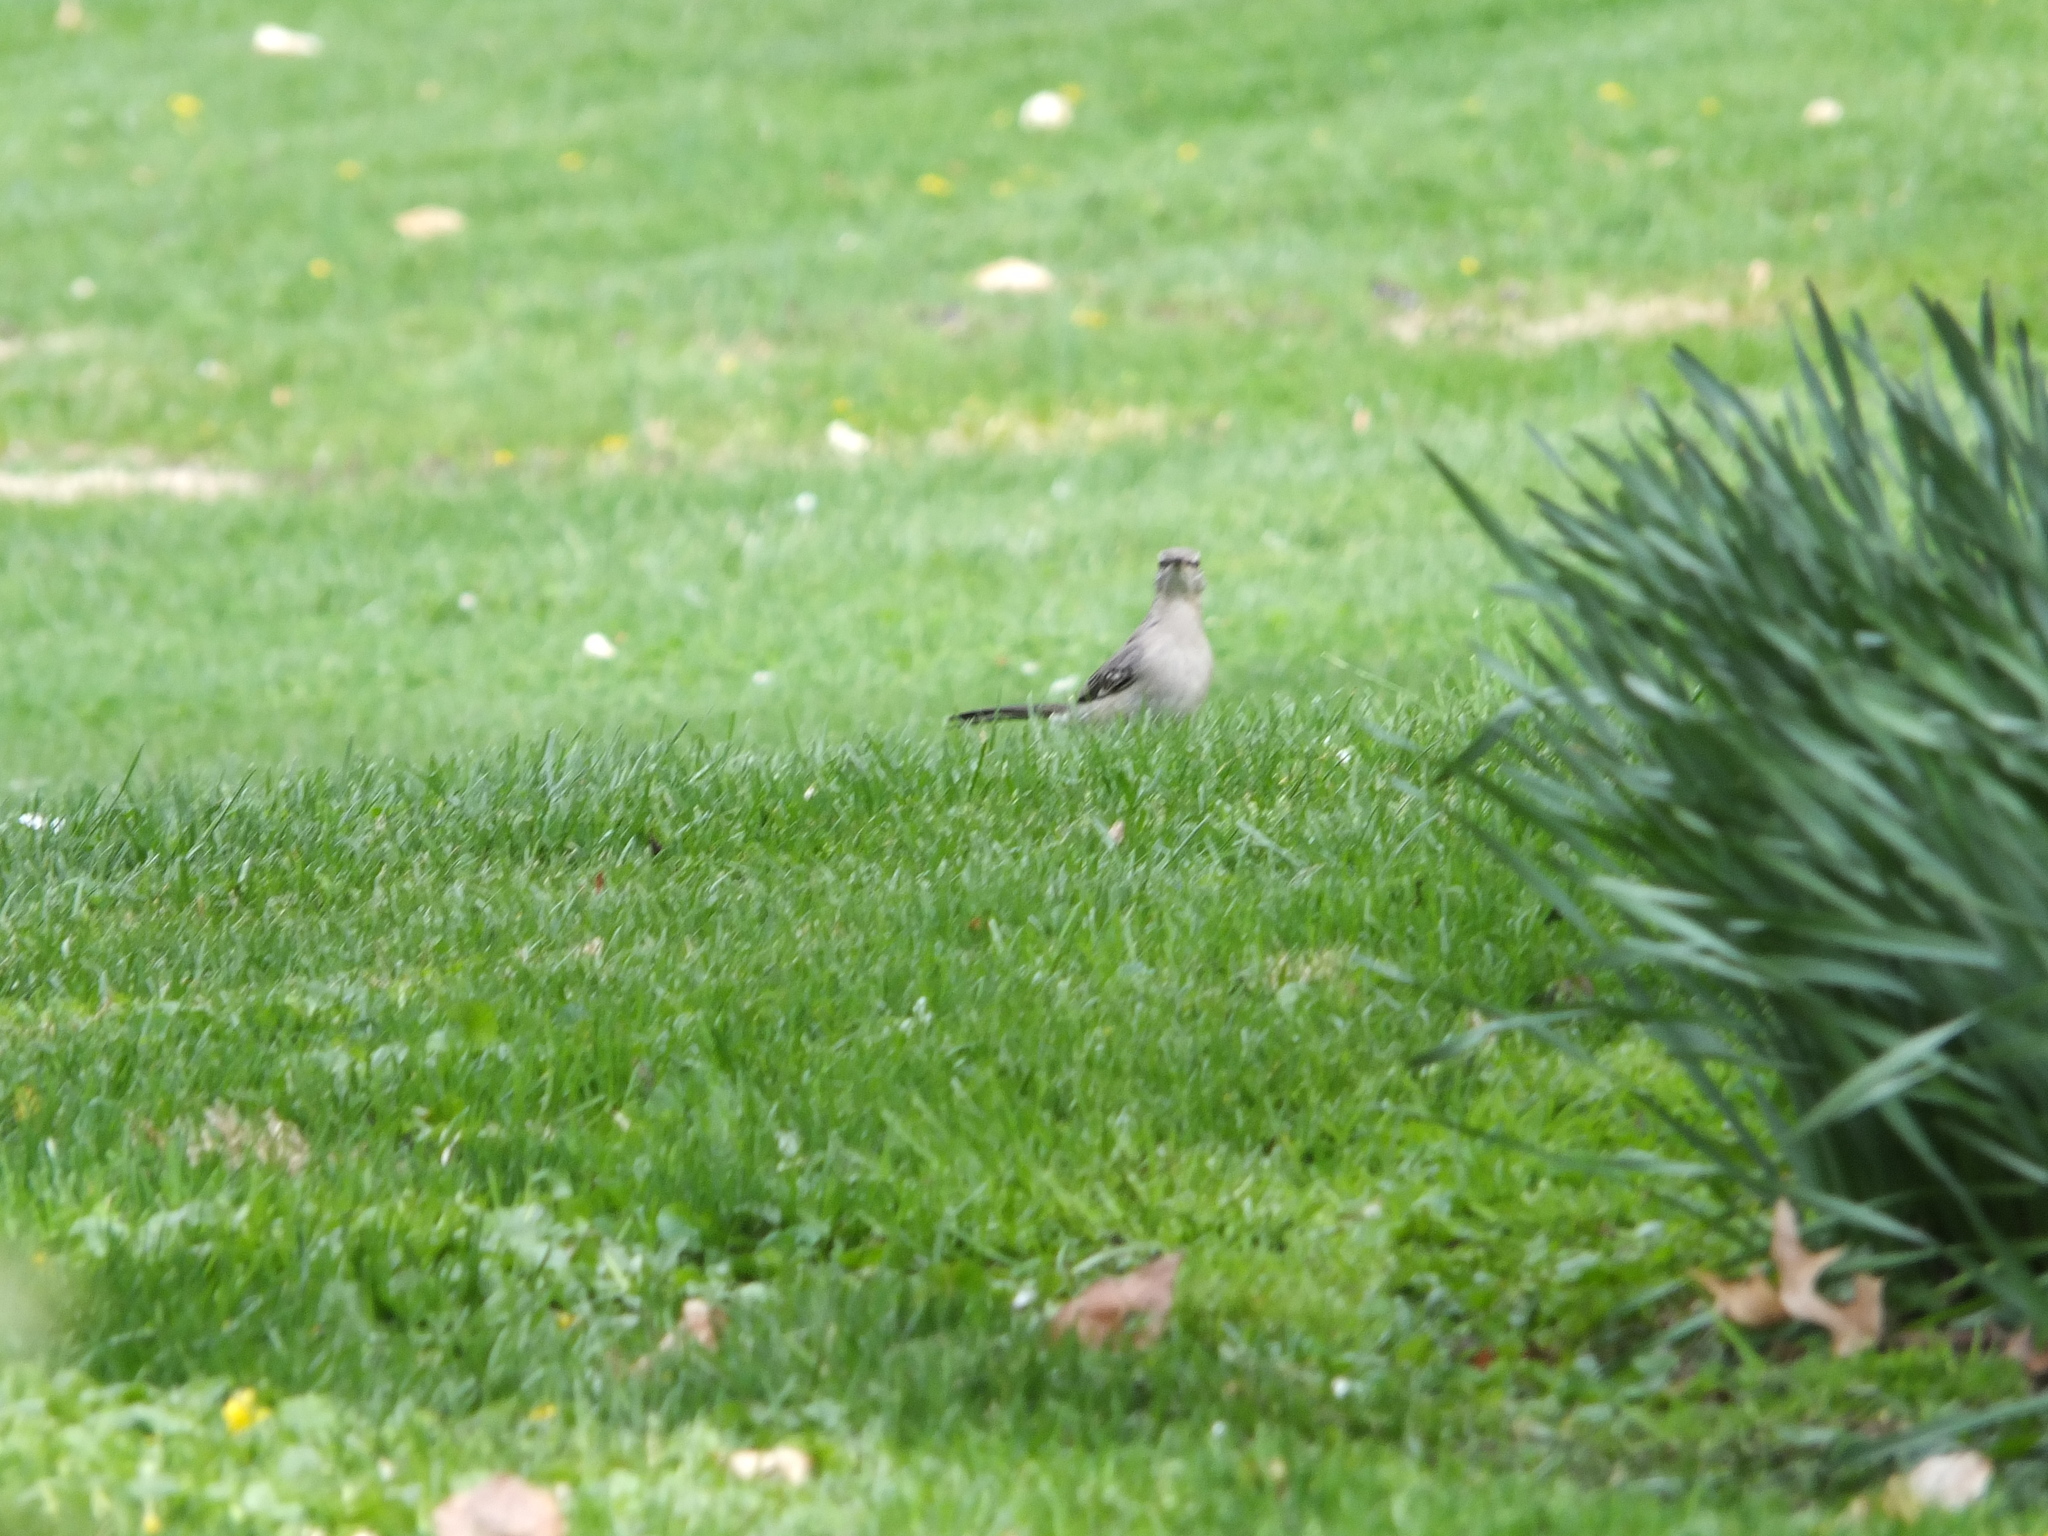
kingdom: Animalia
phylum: Chordata
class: Aves
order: Passeriformes
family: Mimidae
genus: Mimus
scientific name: Mimus polyglottos
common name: Northern mockingbird
